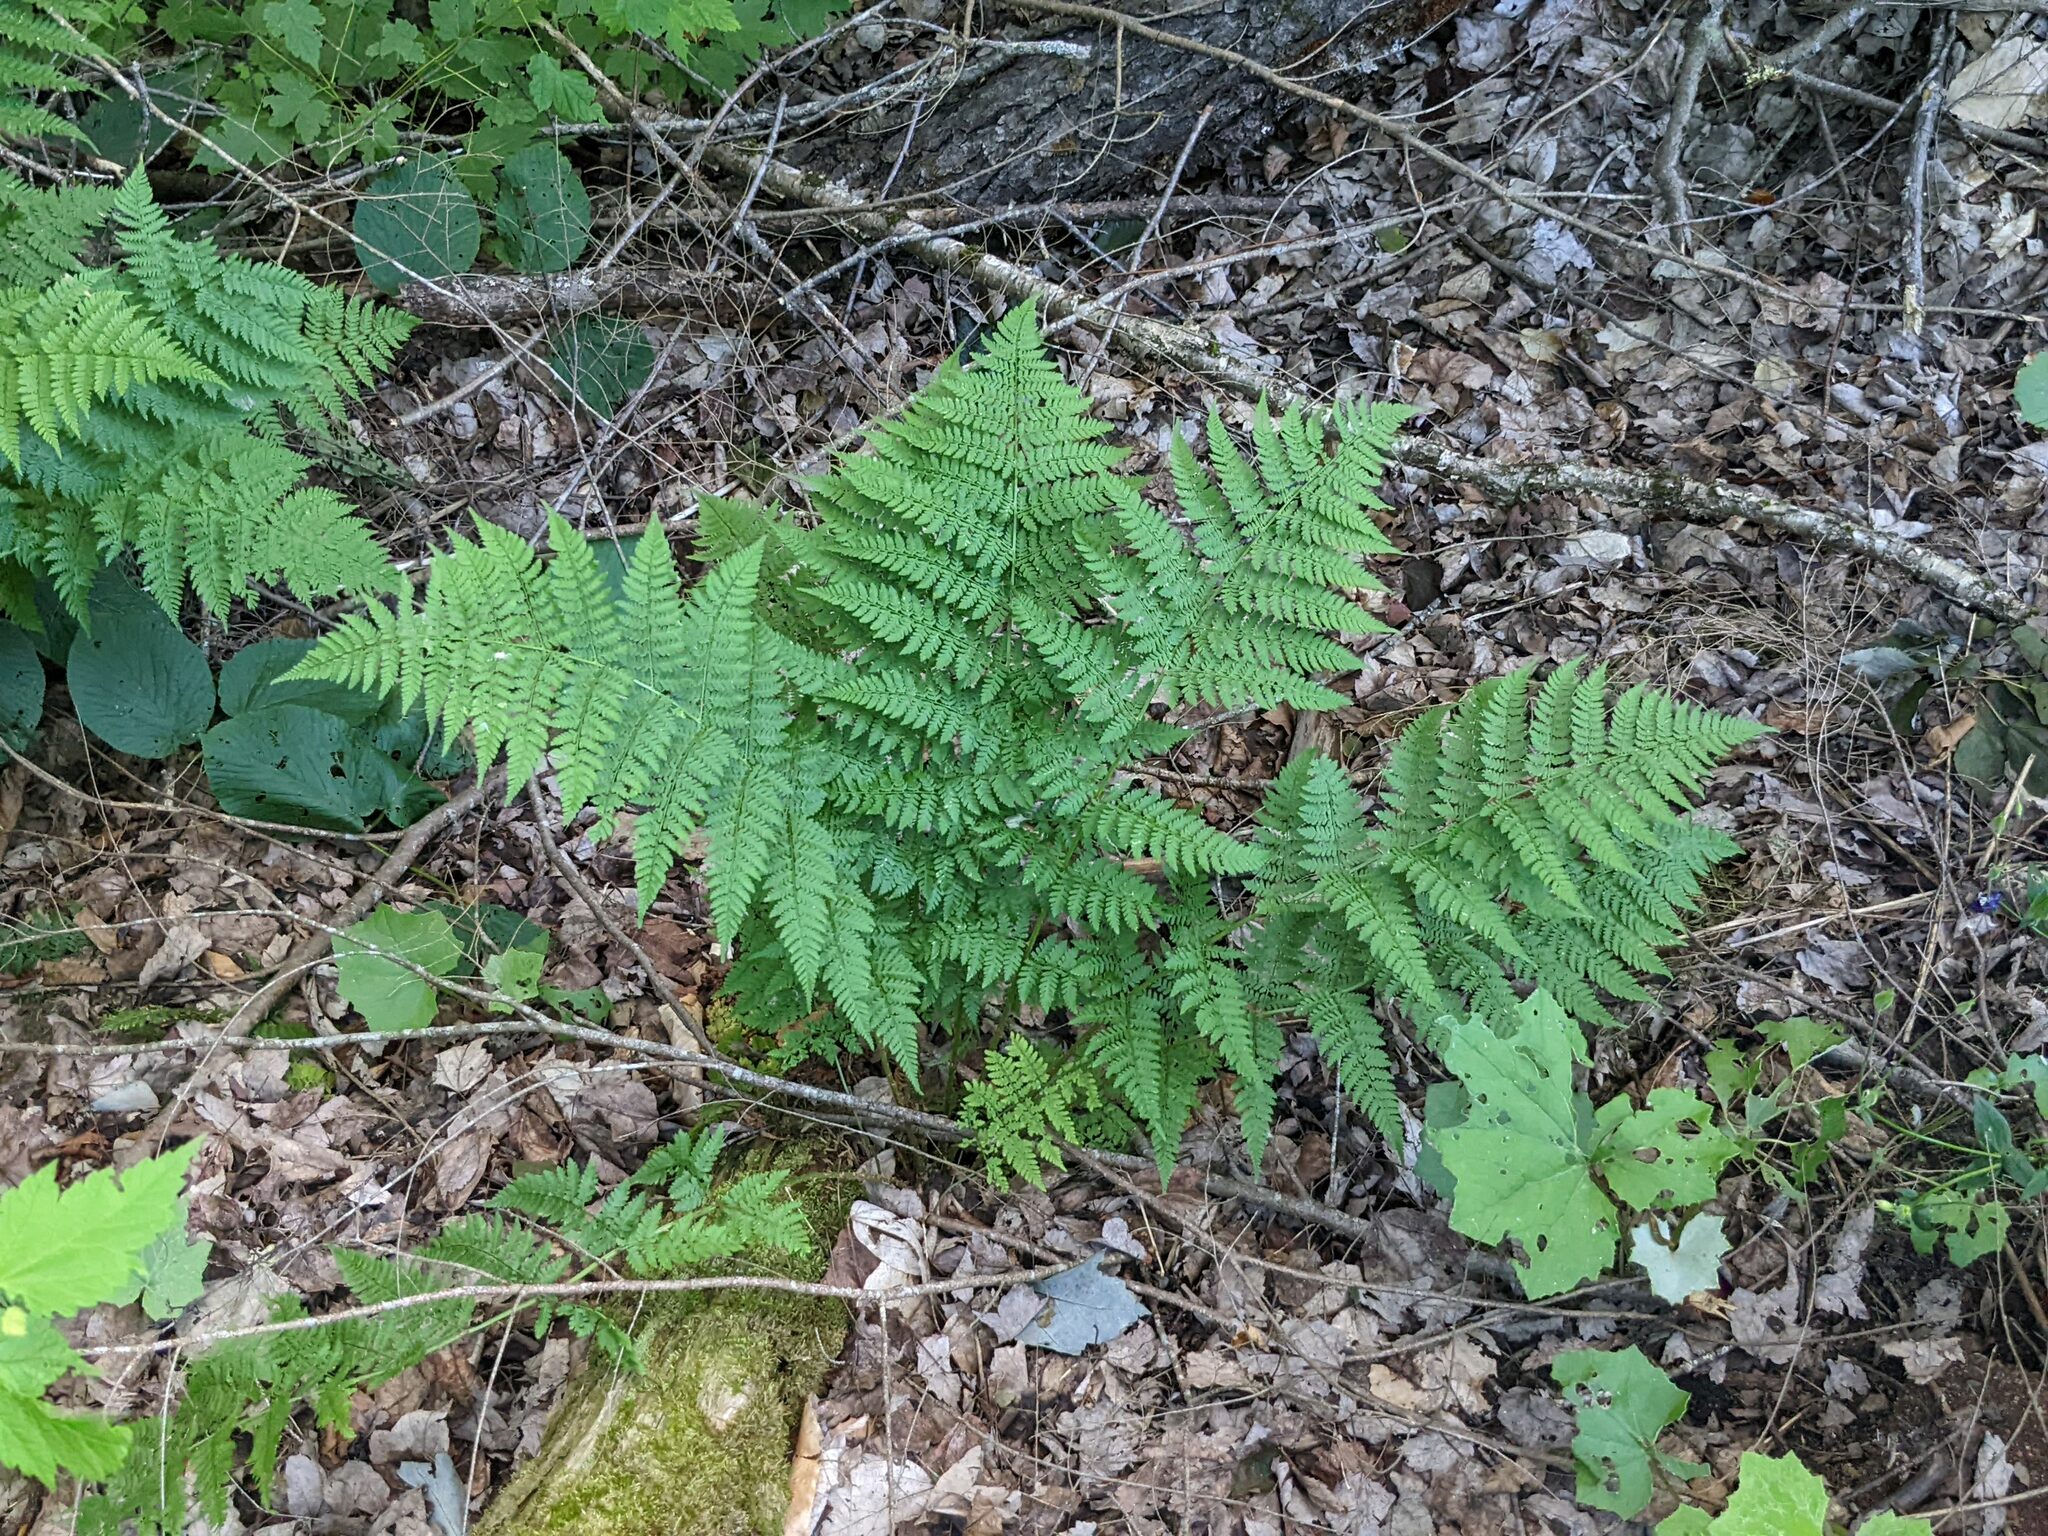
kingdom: Plantae
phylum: Tracheophyta
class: Polypodiopsida
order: Polypodiales
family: Dryopteridaceae
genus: Dryopteris
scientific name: Dryopteris intermedia
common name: Evergreen wood fern
